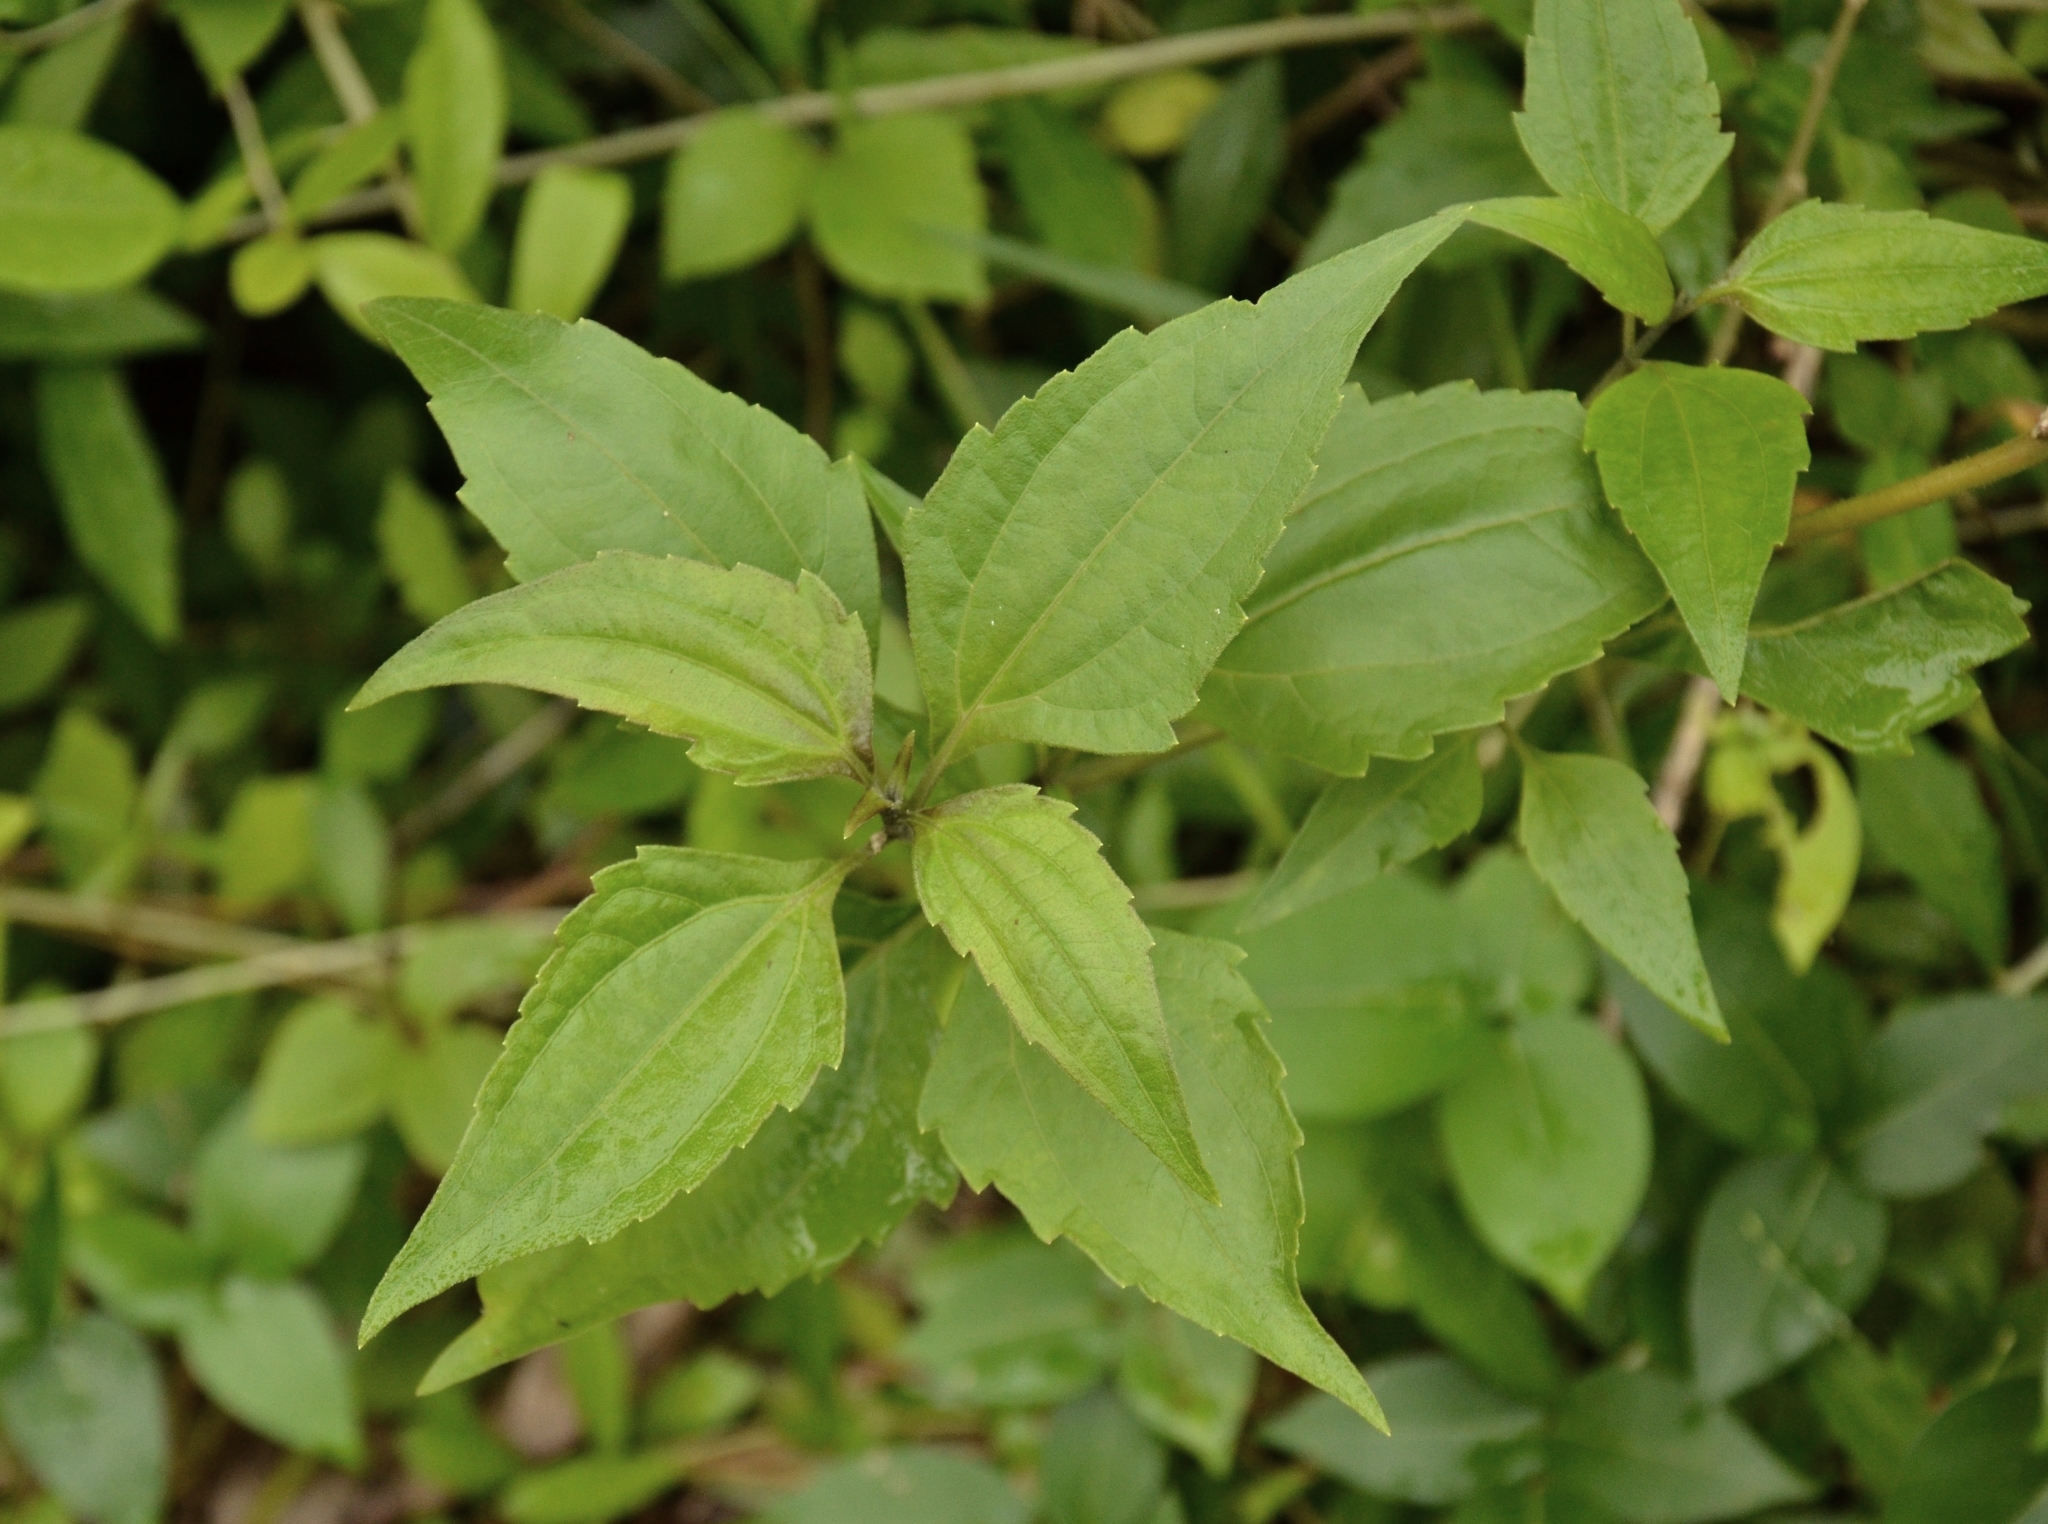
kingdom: Plantae
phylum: Tracheophyta
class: Magnoliopsida
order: Asterales
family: Asteraceae
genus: Chromolaena
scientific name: Chromolaena odorata
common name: Siamweed
